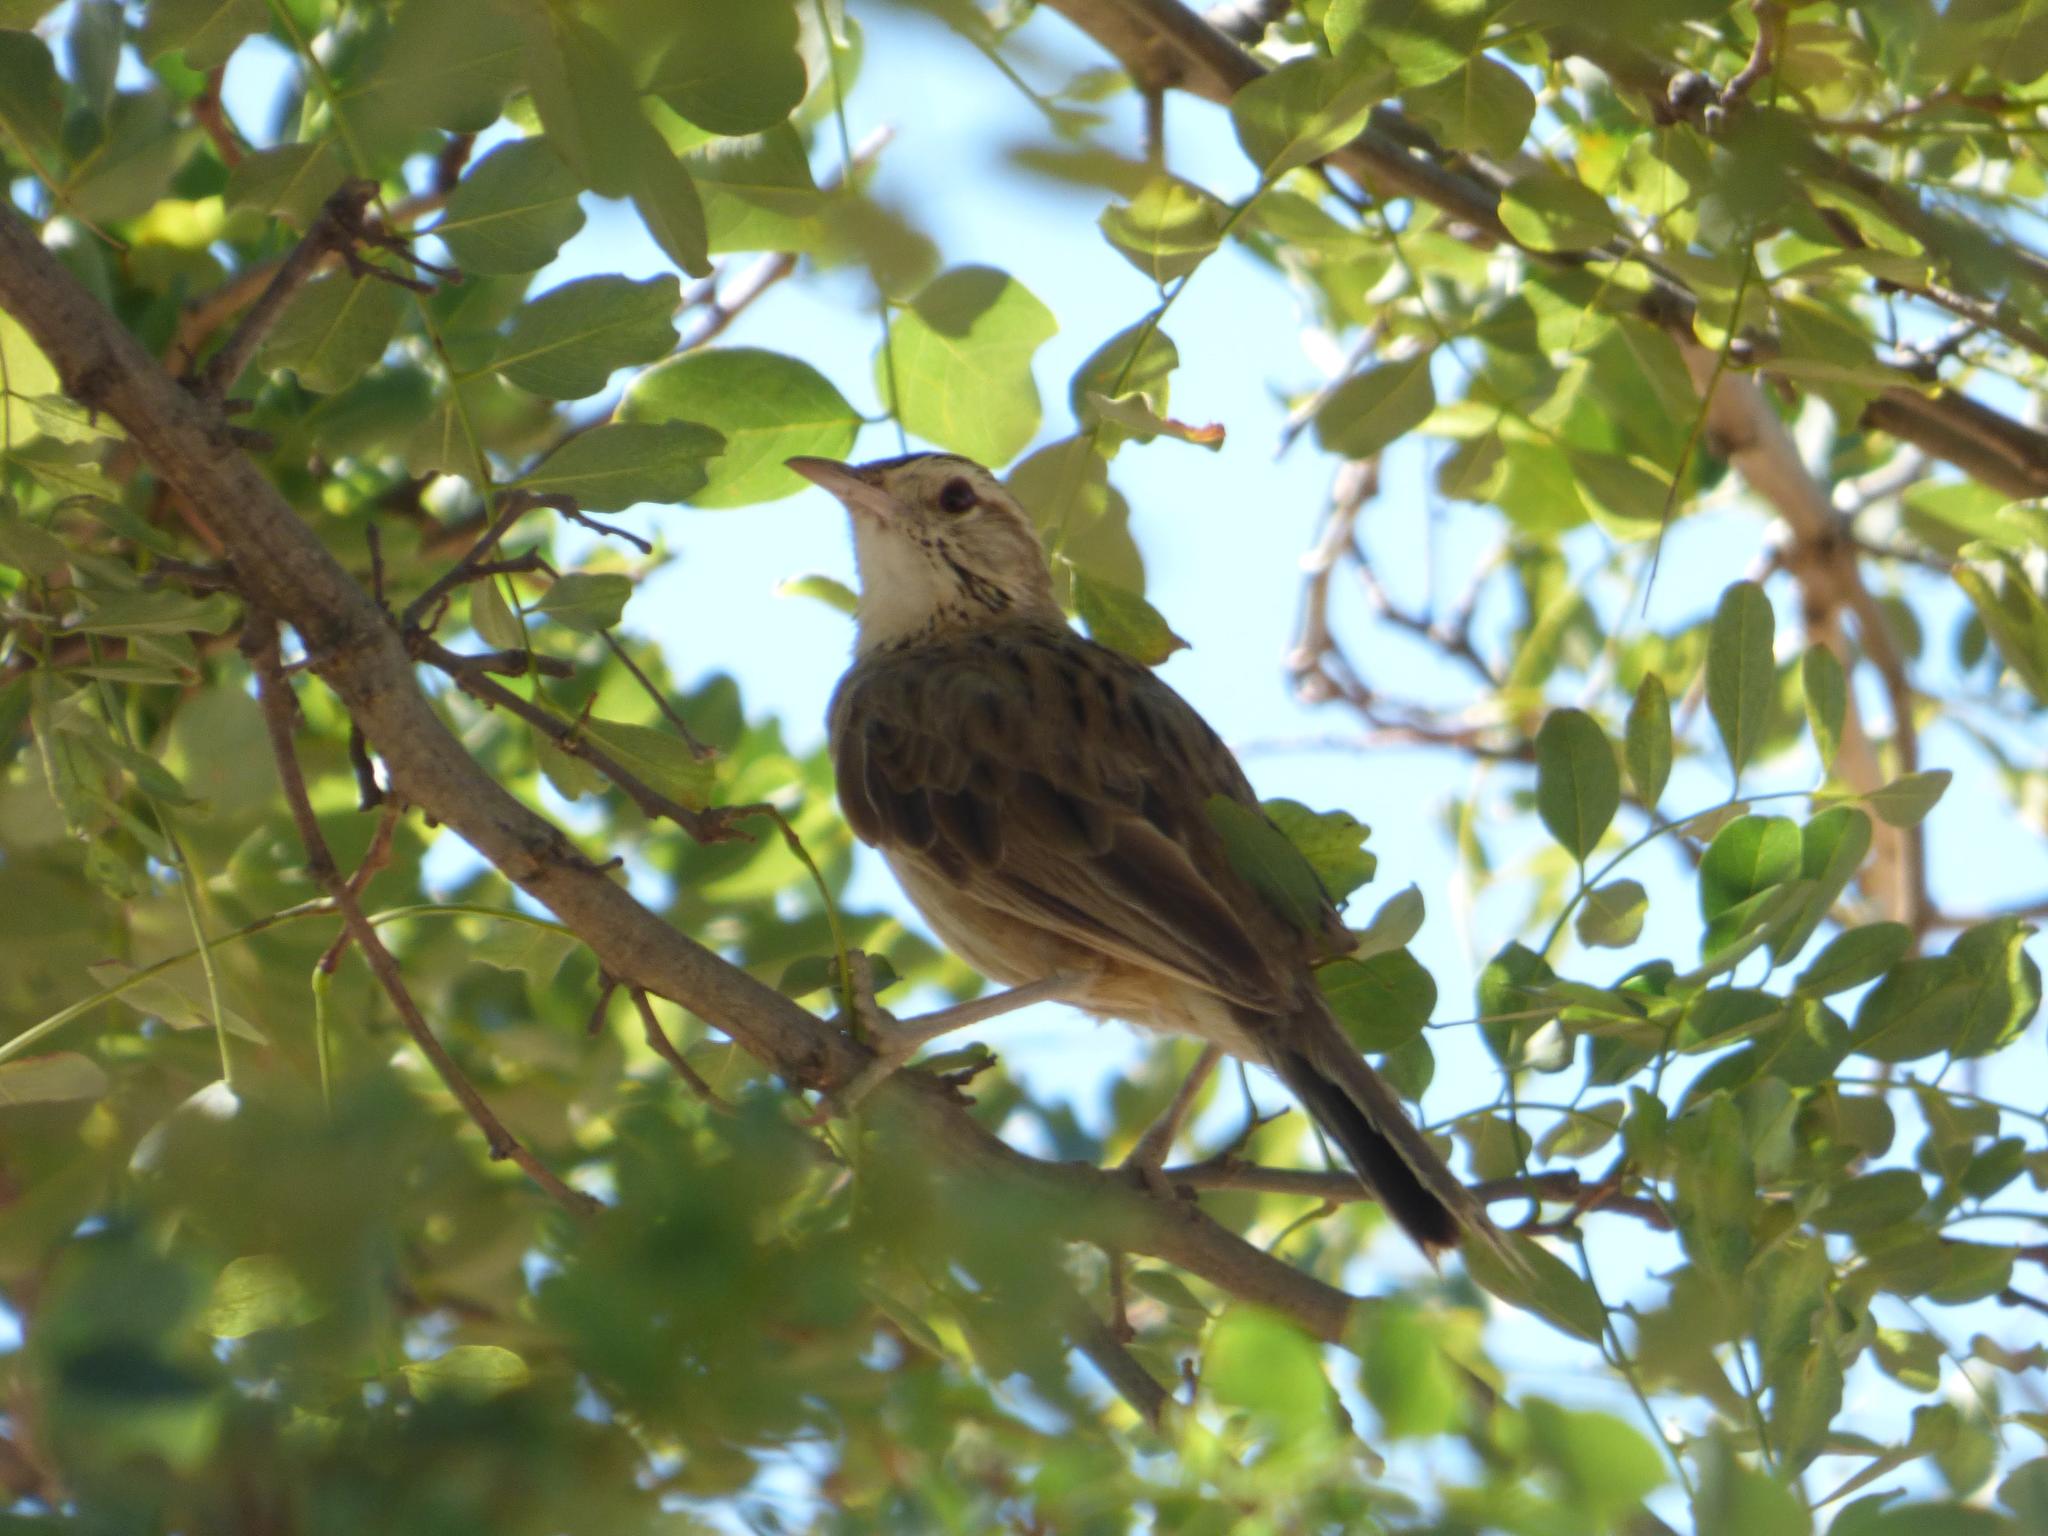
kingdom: Animalia
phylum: Chordata
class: Aves
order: Passeriformes
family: Furnariidae
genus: Anumbius
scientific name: Anumbius annumbi
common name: Firewood-gatherer
